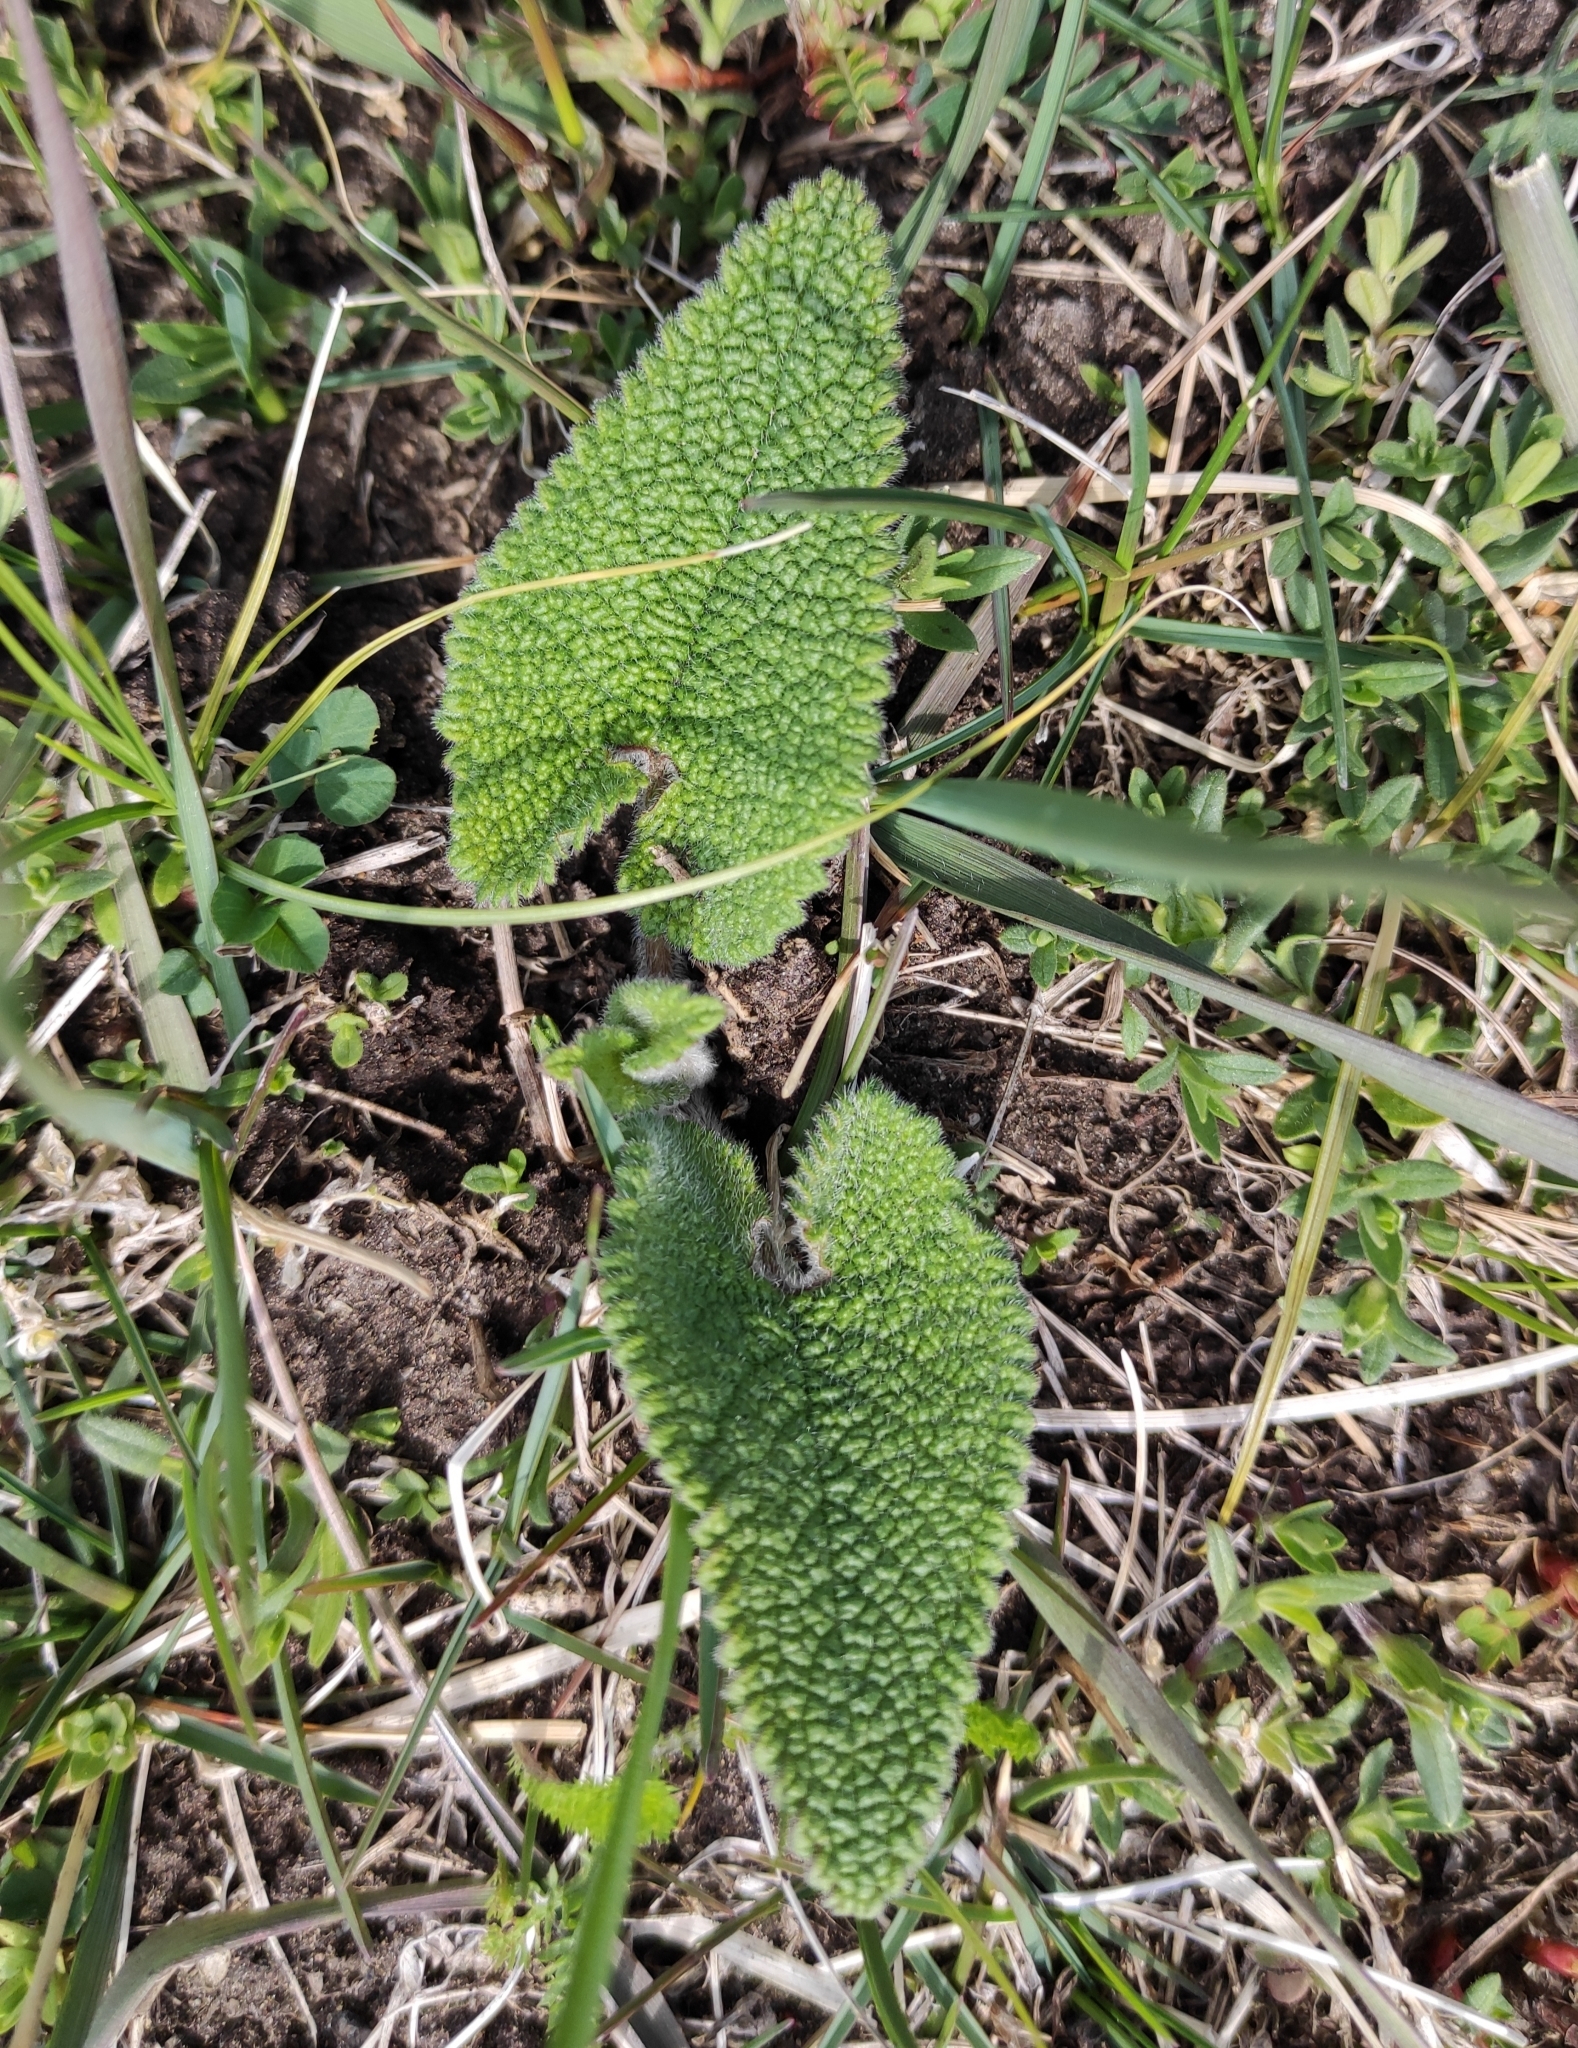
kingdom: Plantae
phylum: Tracheophyta
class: Magnoliopsida
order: Lamiales
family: Lamiaceae
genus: Phlomoides
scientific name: Phlomoides tuberosa
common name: Tuberous jerusalem sage
